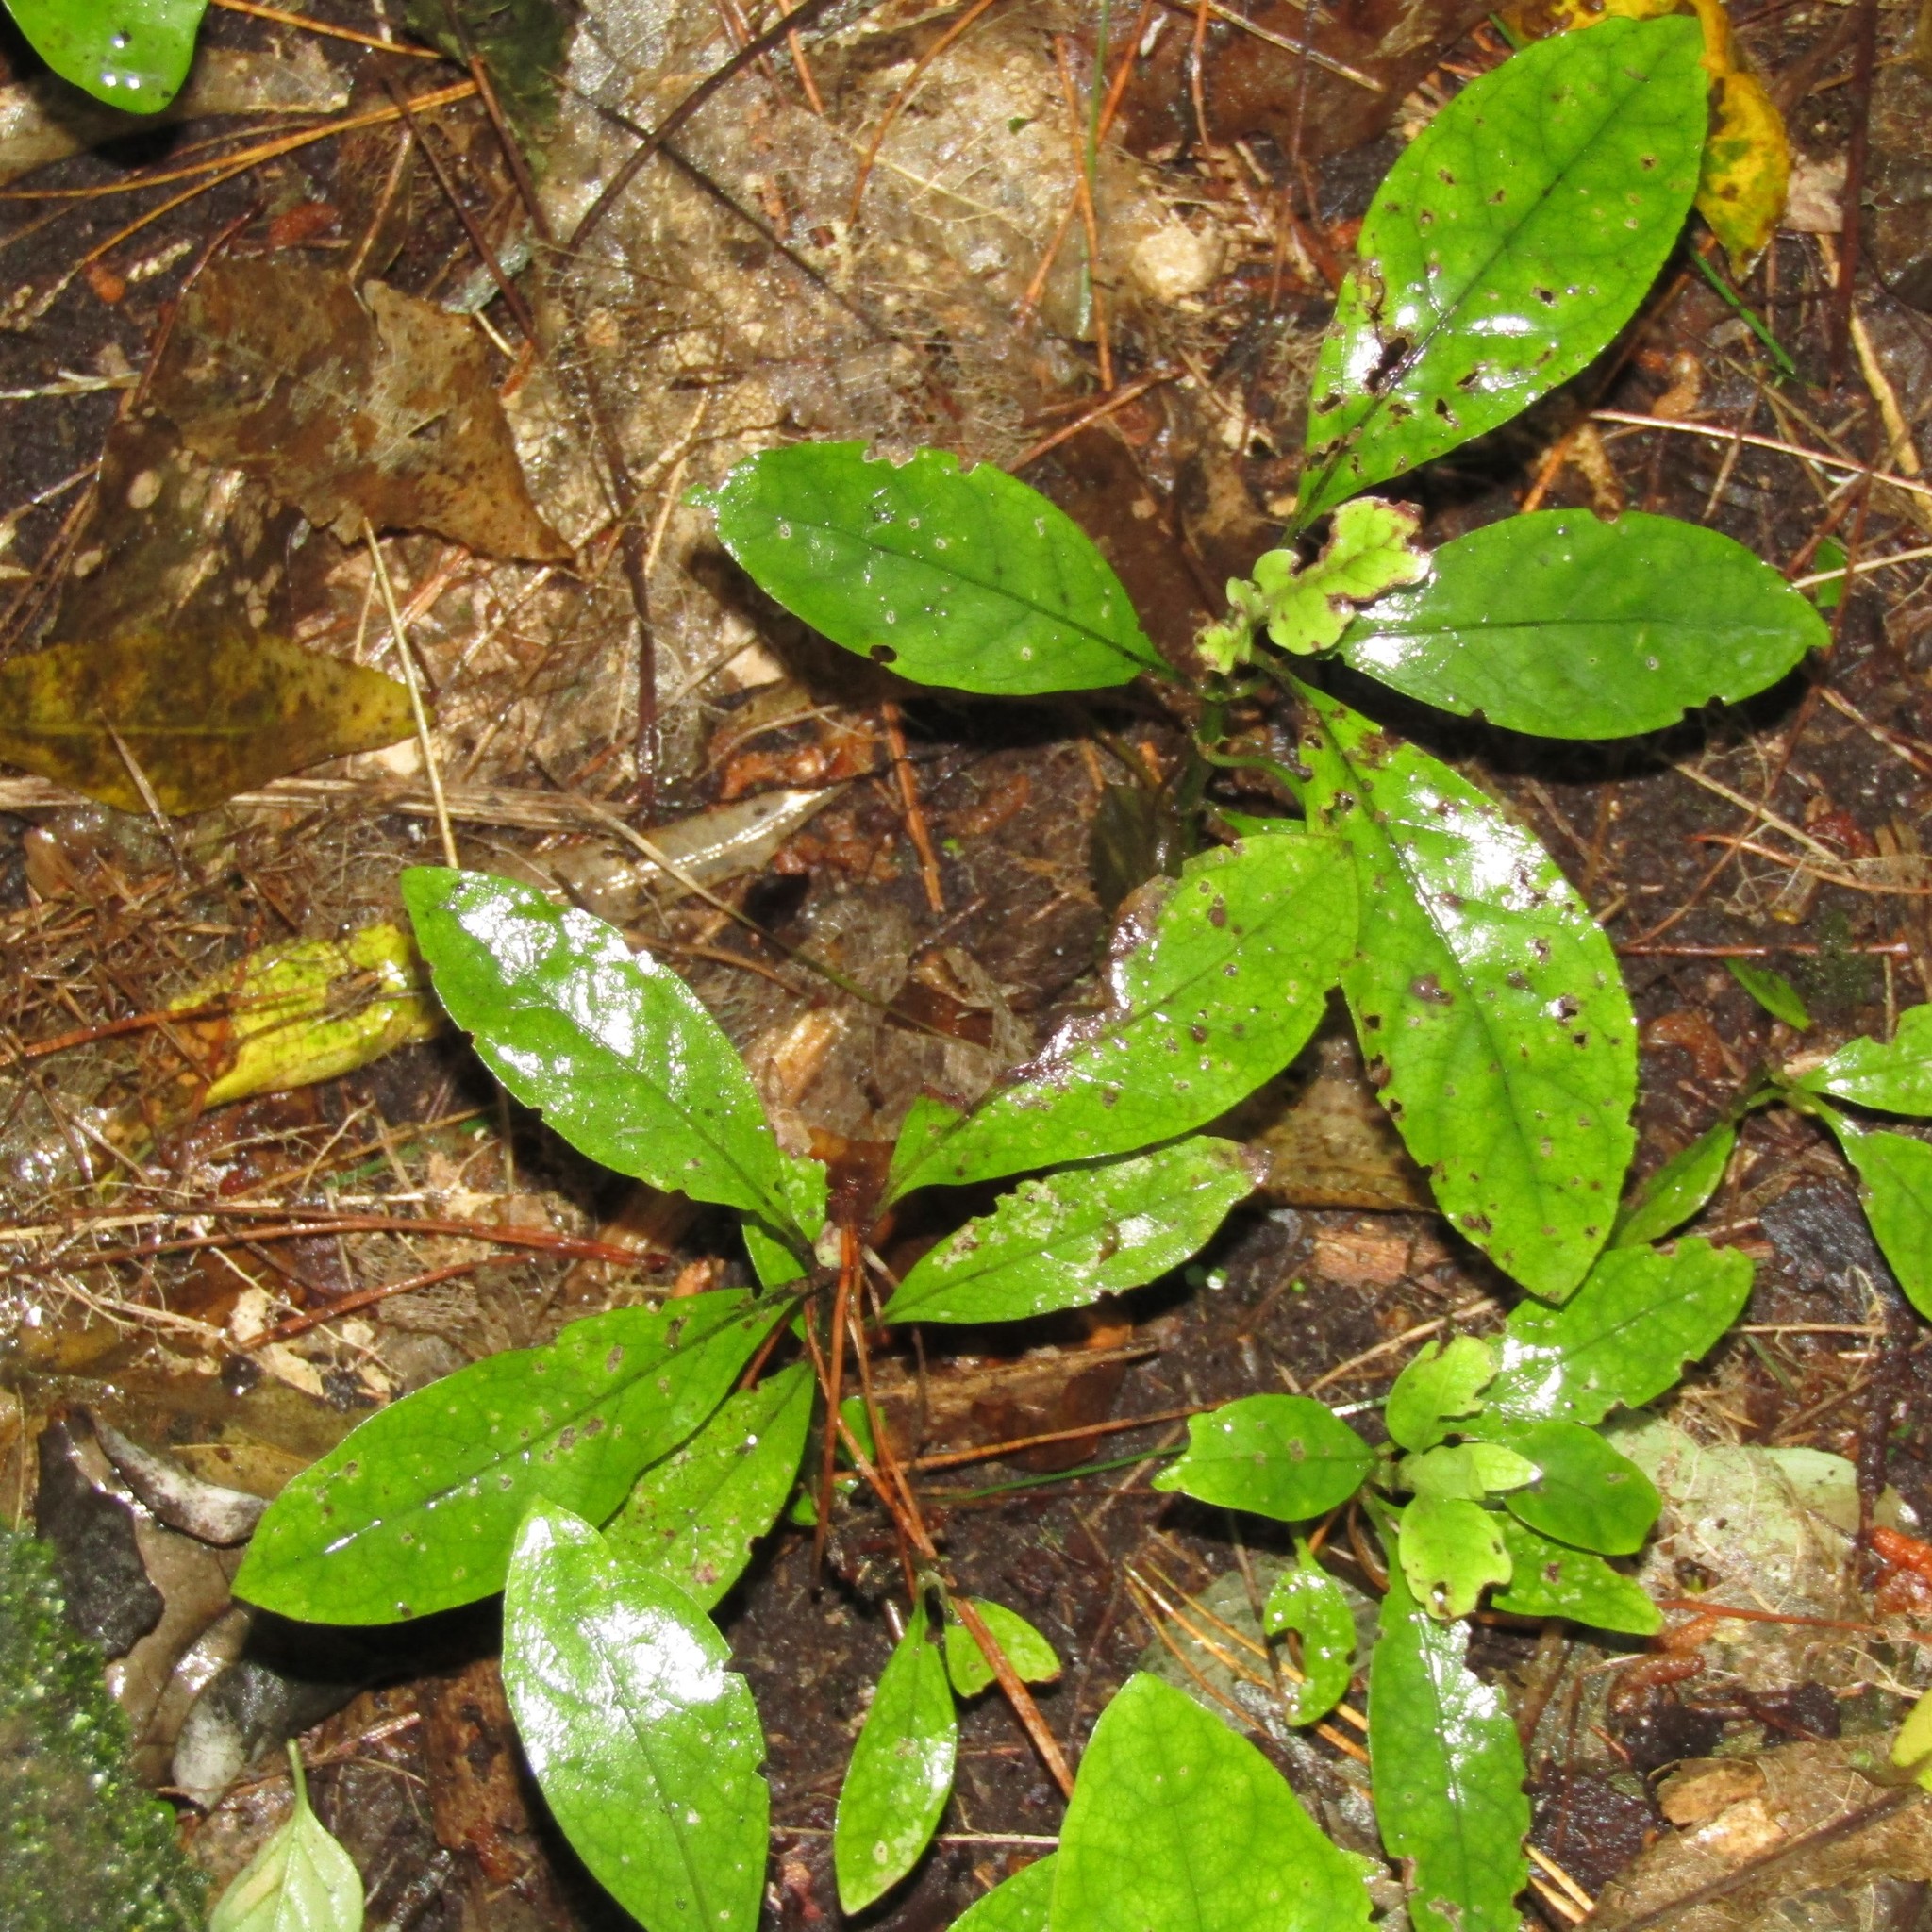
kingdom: Plantae
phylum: Tracheophyta
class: Magnoliopsida
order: Gentianales
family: Rubiaceae
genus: Coprosma
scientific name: Coprosma autumnalis
